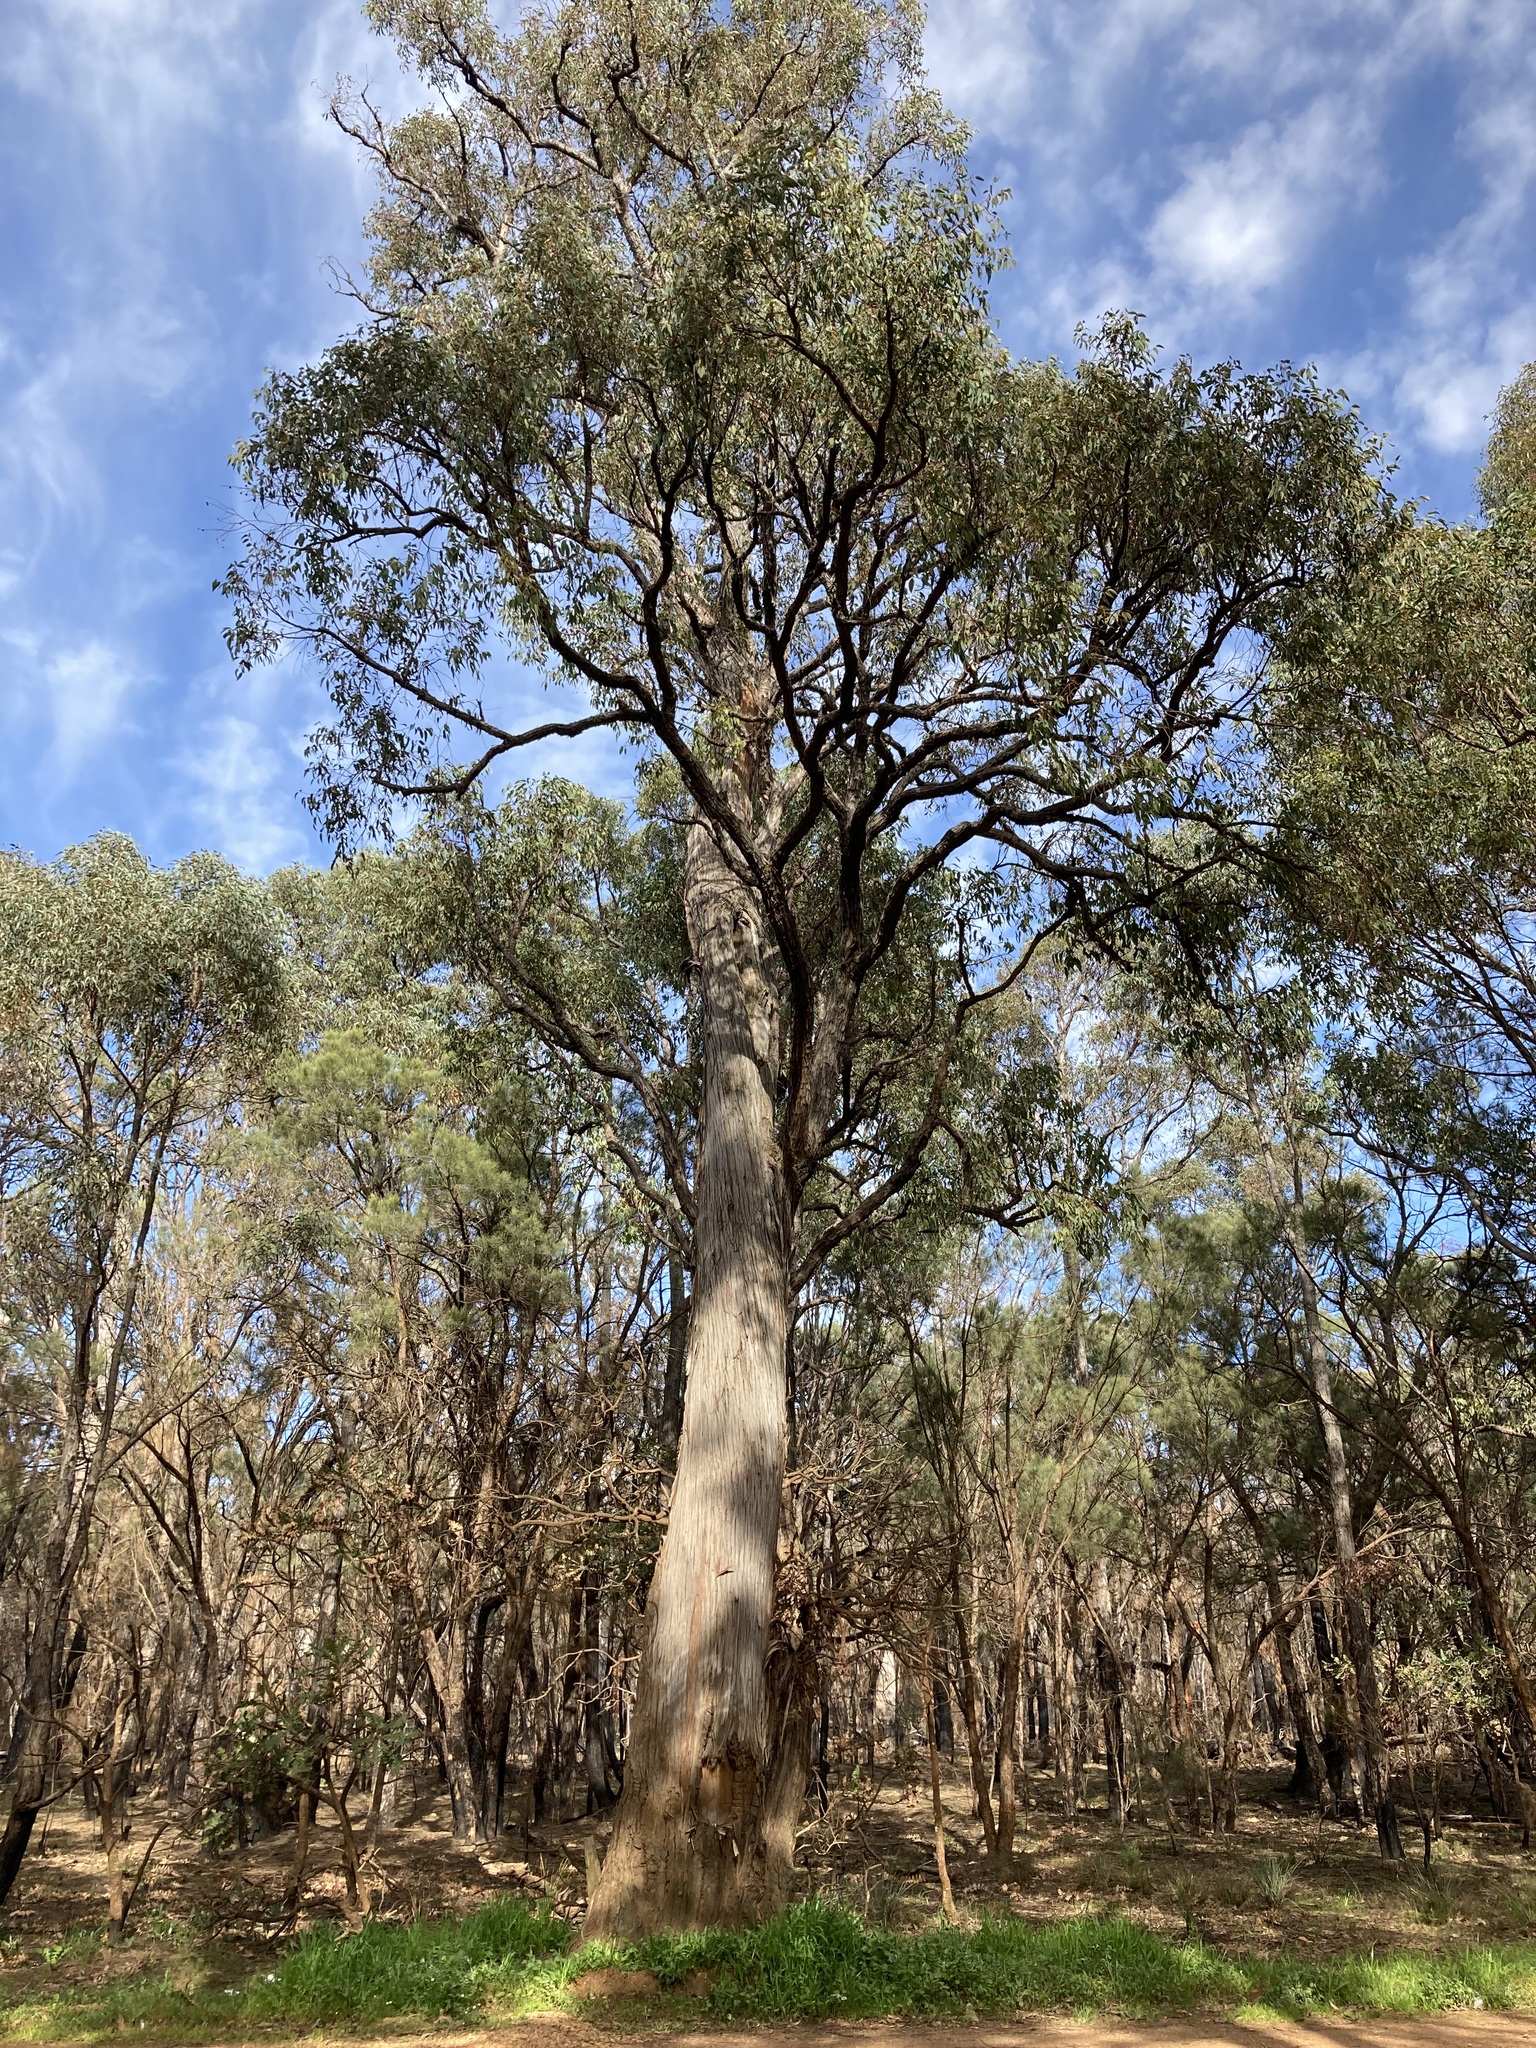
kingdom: Plantae
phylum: Tracheophyta
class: Magnoliopsida
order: Myrtales
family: Myrtaceae
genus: Eucalyptus
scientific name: Eucalyptus marginata
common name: Jarrah
